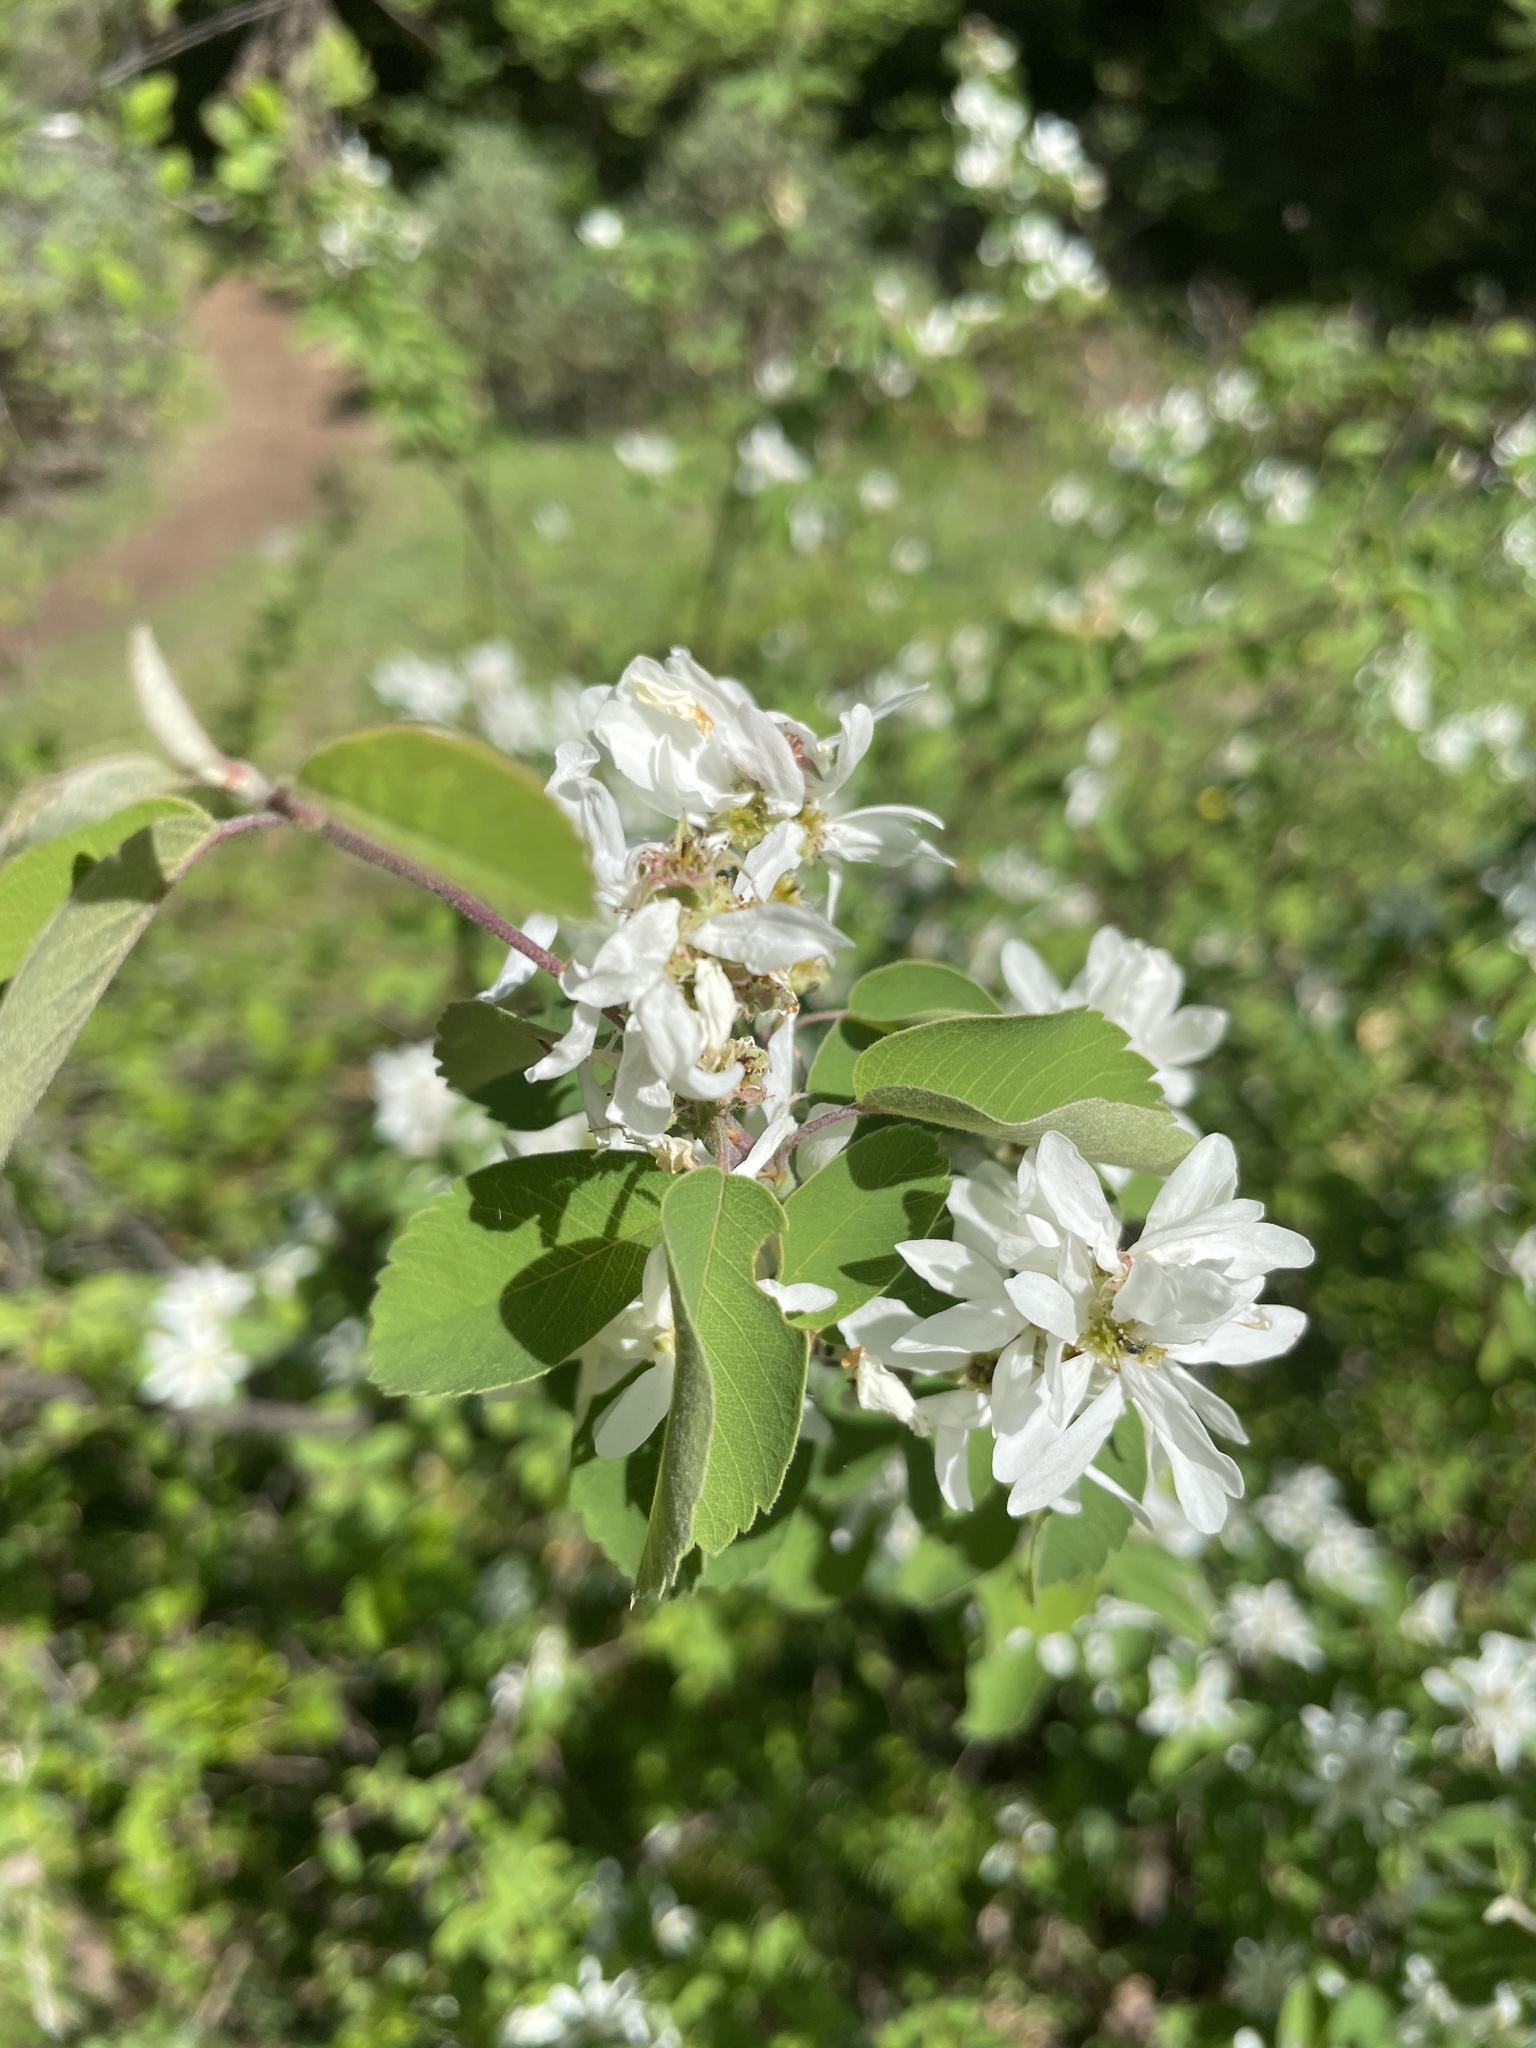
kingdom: Plantae
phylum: Tracheophyta
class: Magnoliopsida
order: Rosales
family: Rosaceae
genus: Amelanchier
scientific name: Amelanchier alnifolia
